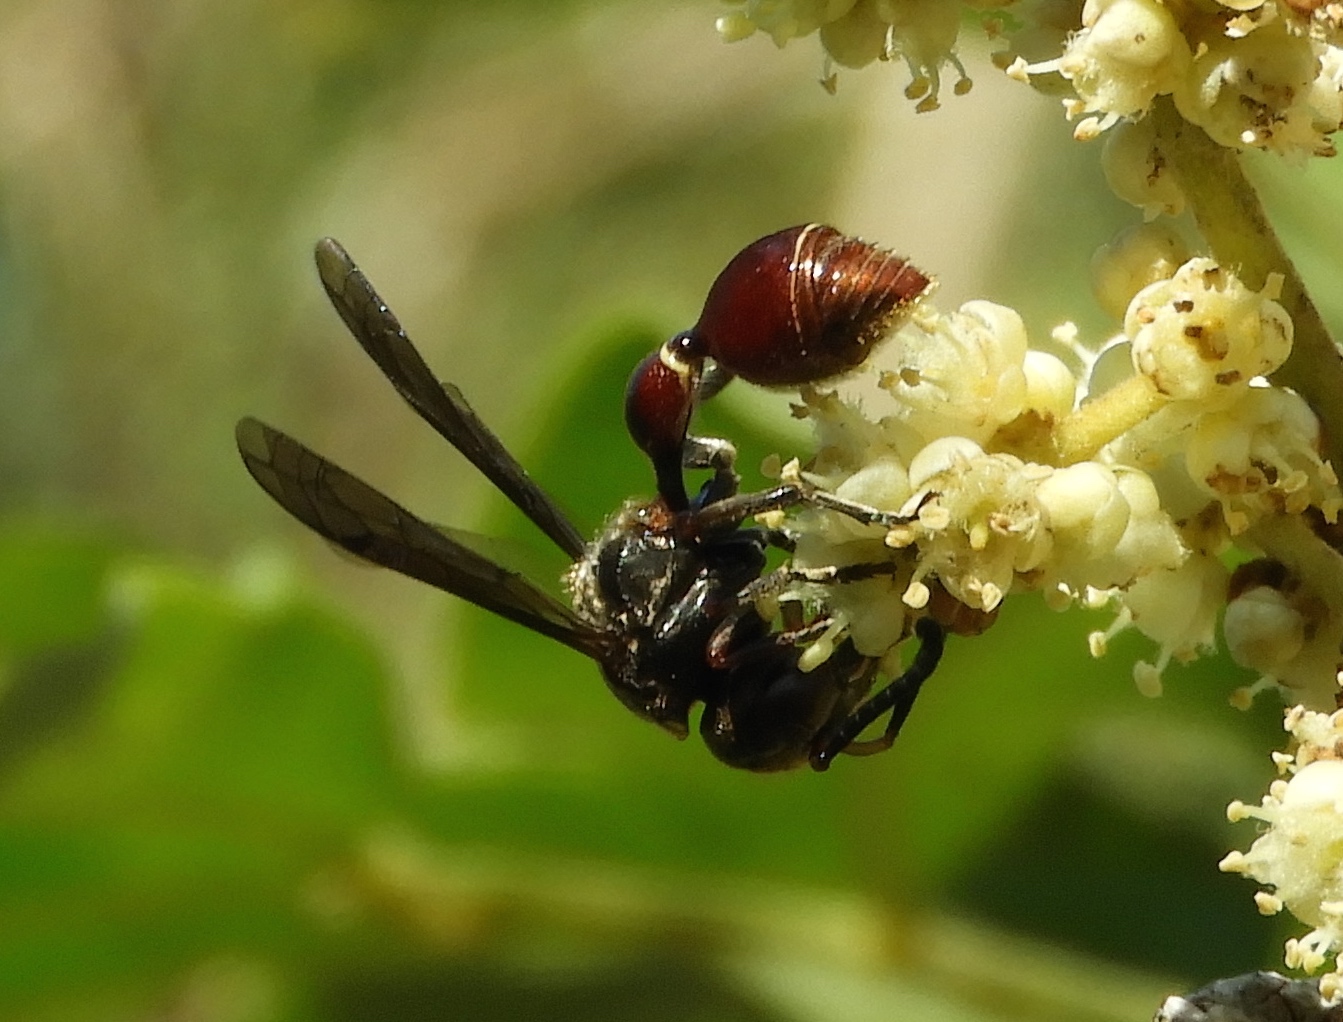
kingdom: Animalia
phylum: Arthropoda
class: Insecta
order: Hymenoptera
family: Eumenidae
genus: Zethus
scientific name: Zethus analis
